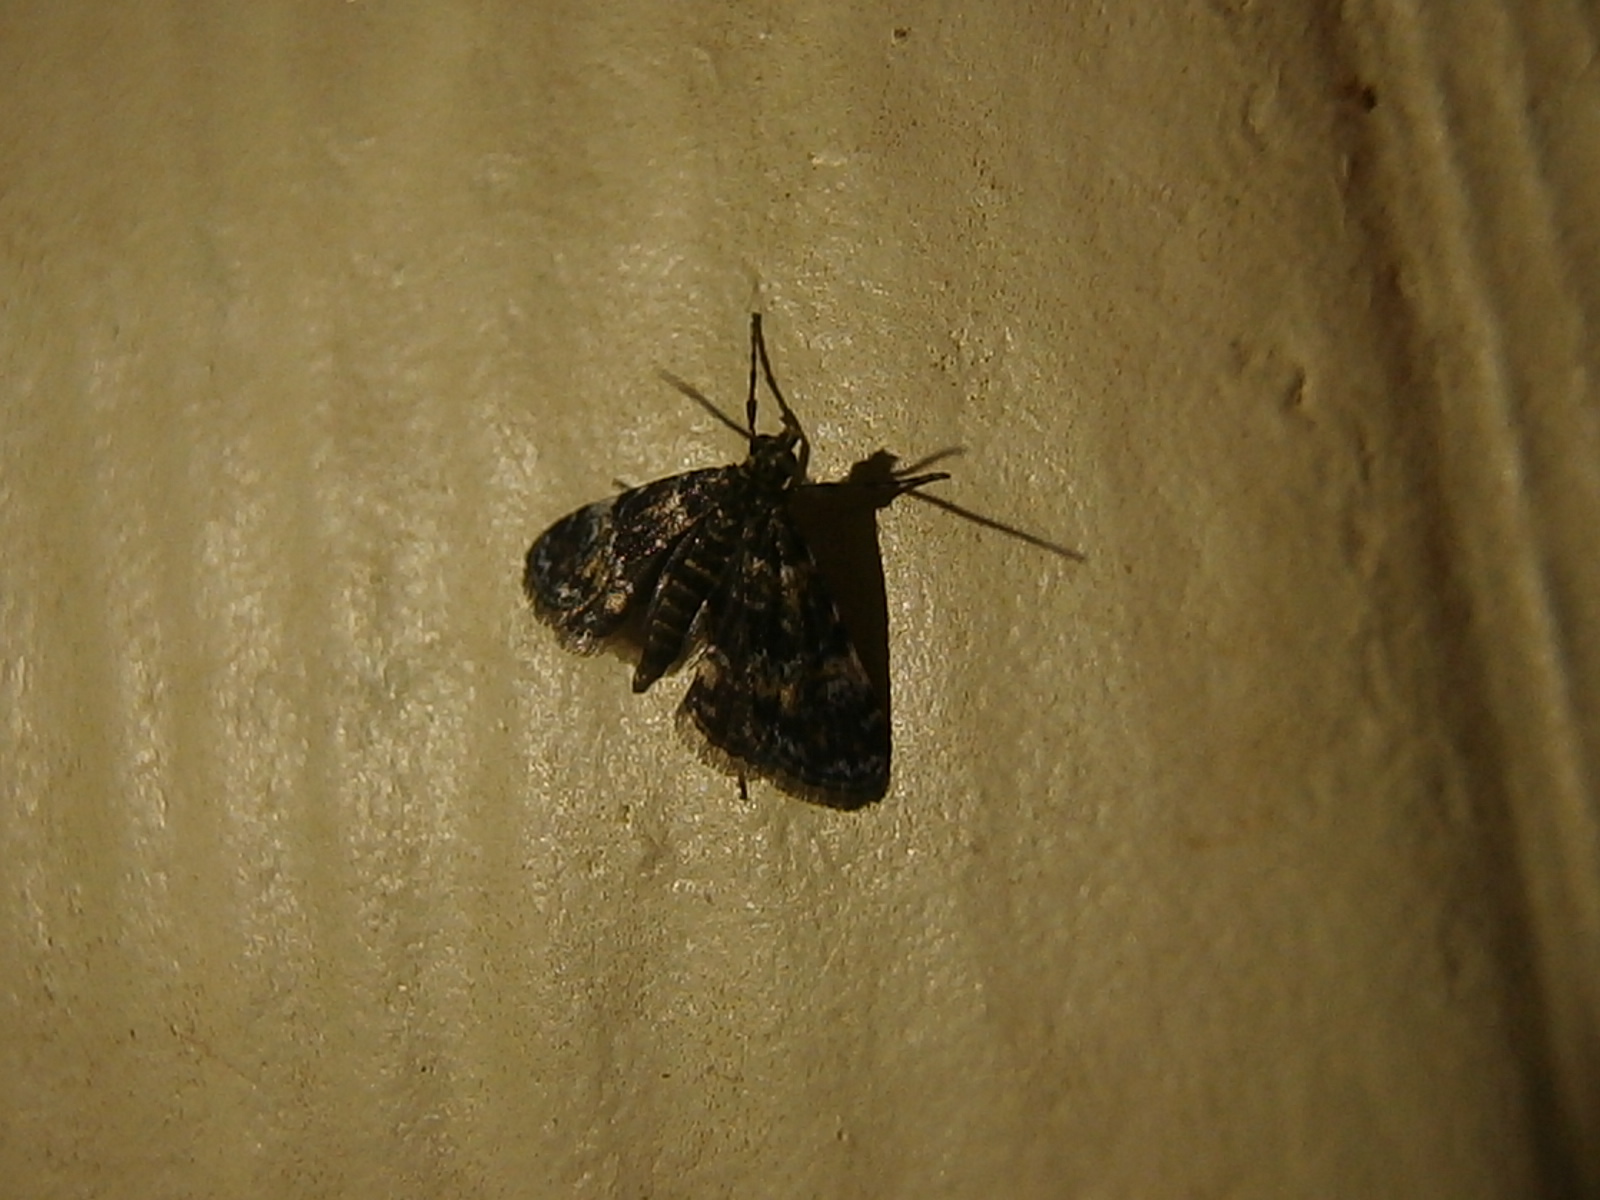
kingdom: Animalia
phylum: Arthropoda
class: Insecta
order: Lepidoptera
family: Crambidae
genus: Elophila
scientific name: Elophila obliteralis
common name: Waterlily leafcutter moth
